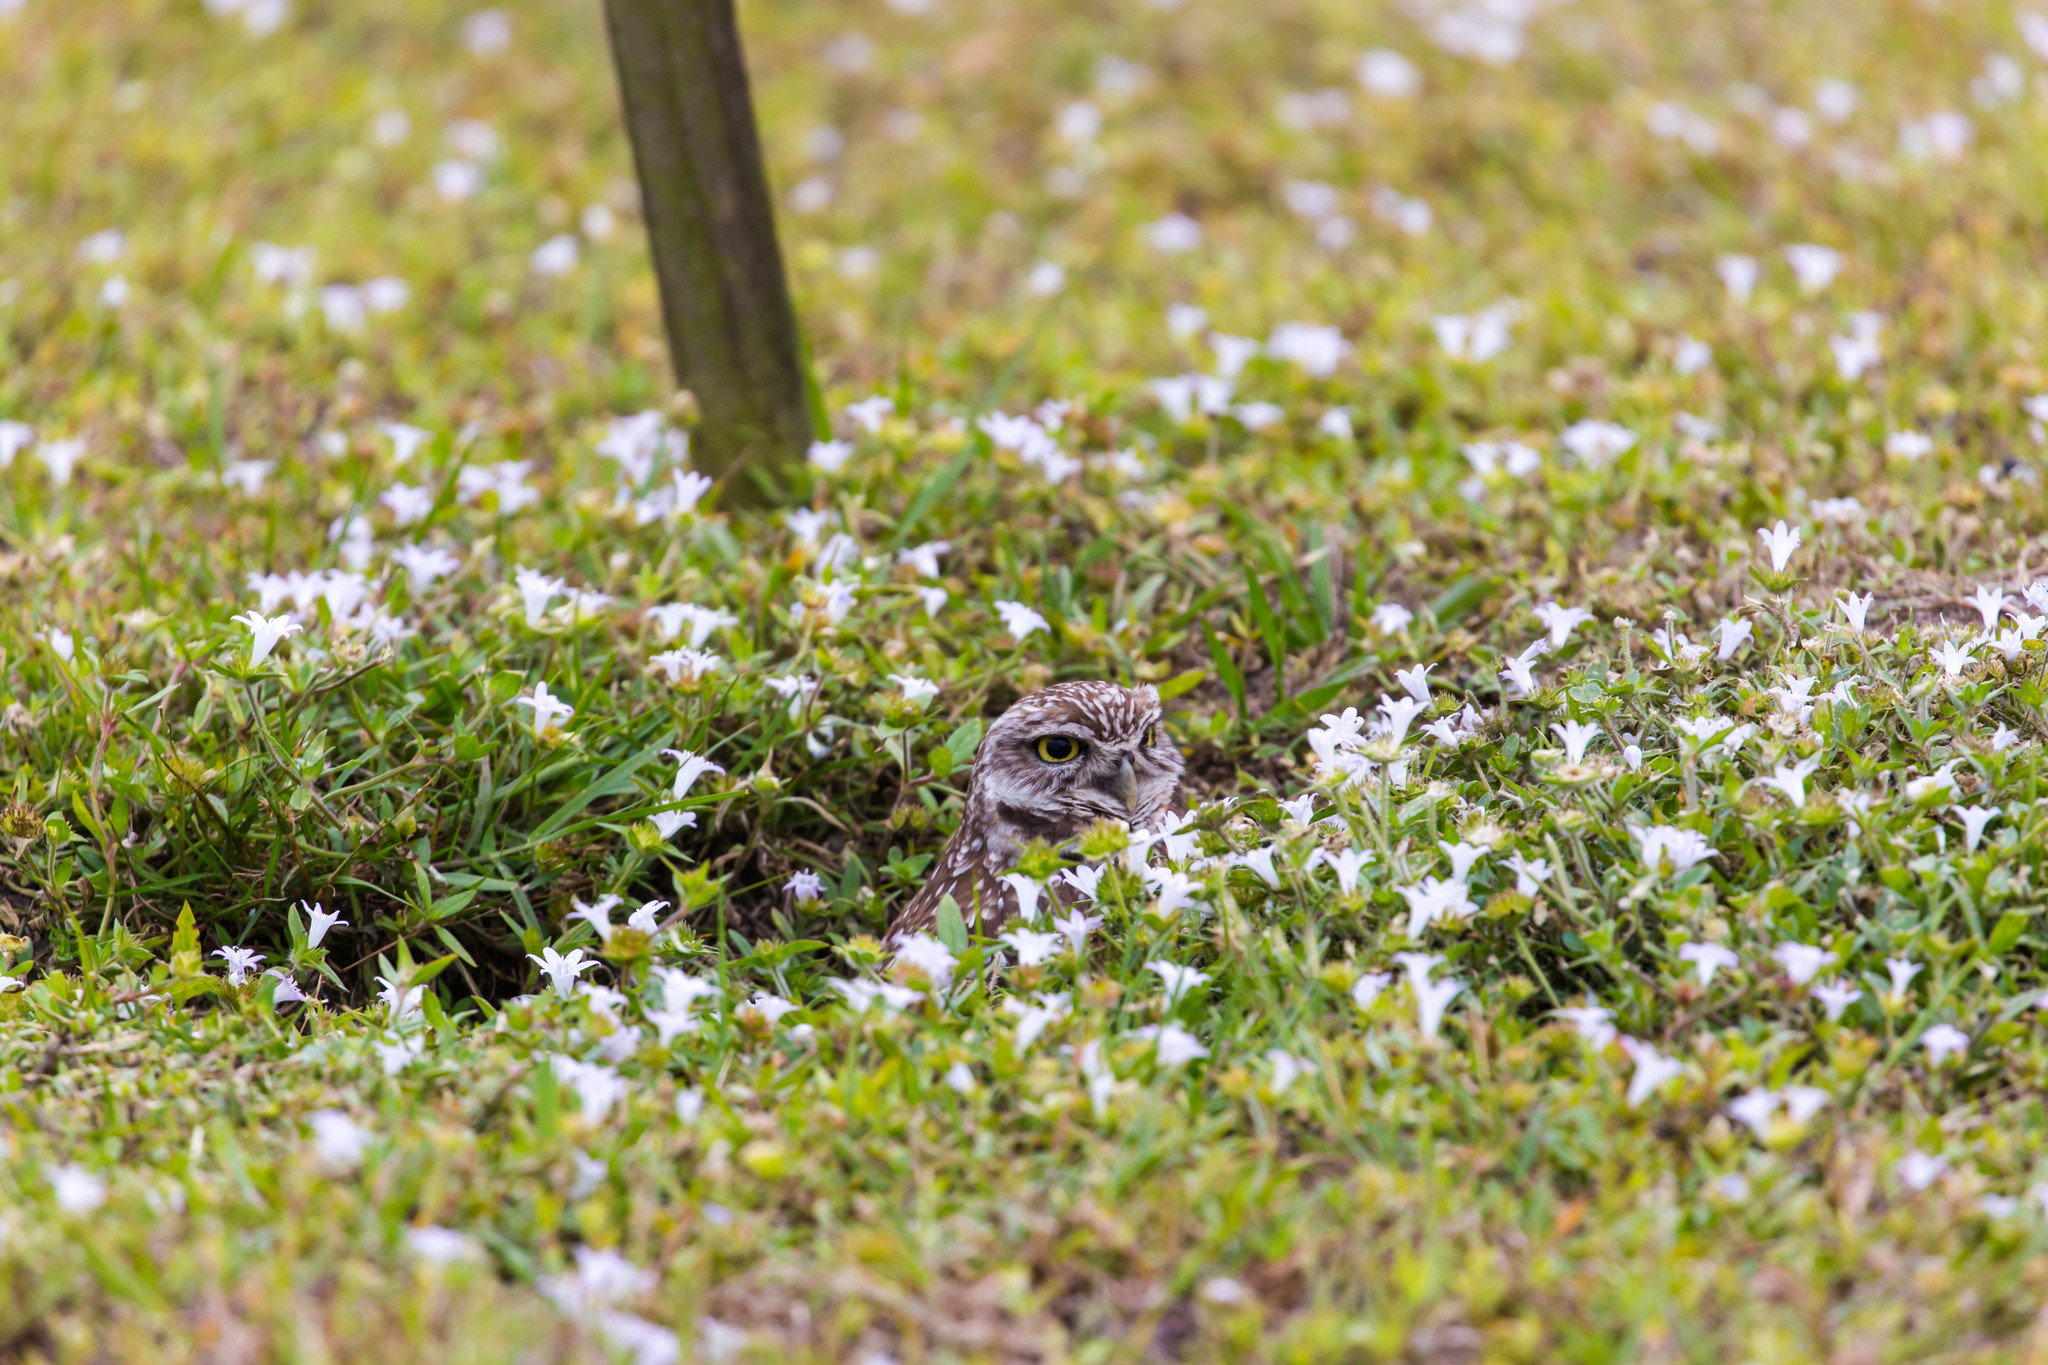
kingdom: Animalia
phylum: Chordata
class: Aves
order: Strigiformes
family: Strigidae
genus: Athene
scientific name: Athene cunicularia
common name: Burrowing owl
